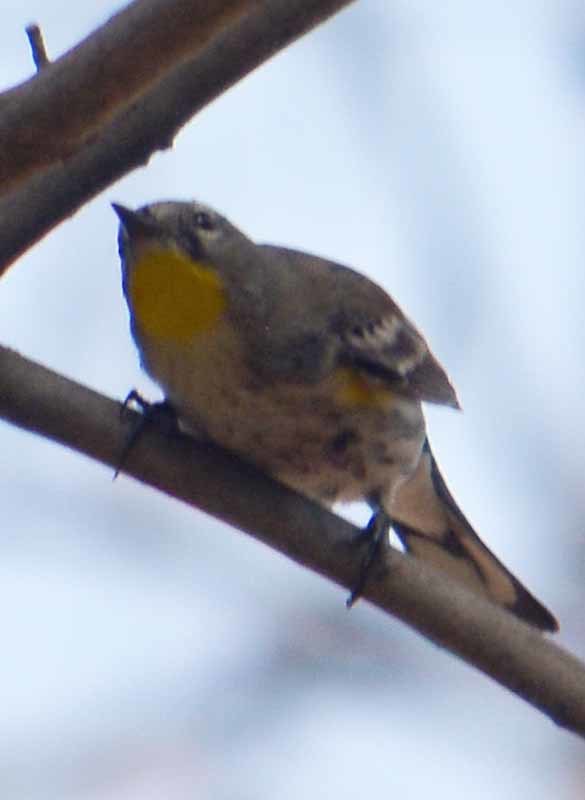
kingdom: Animalia
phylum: Chordata
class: Aves
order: Passeriformes
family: Parulidae
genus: Setophaga
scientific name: Setophaga coronata
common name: Myrtle warbler
